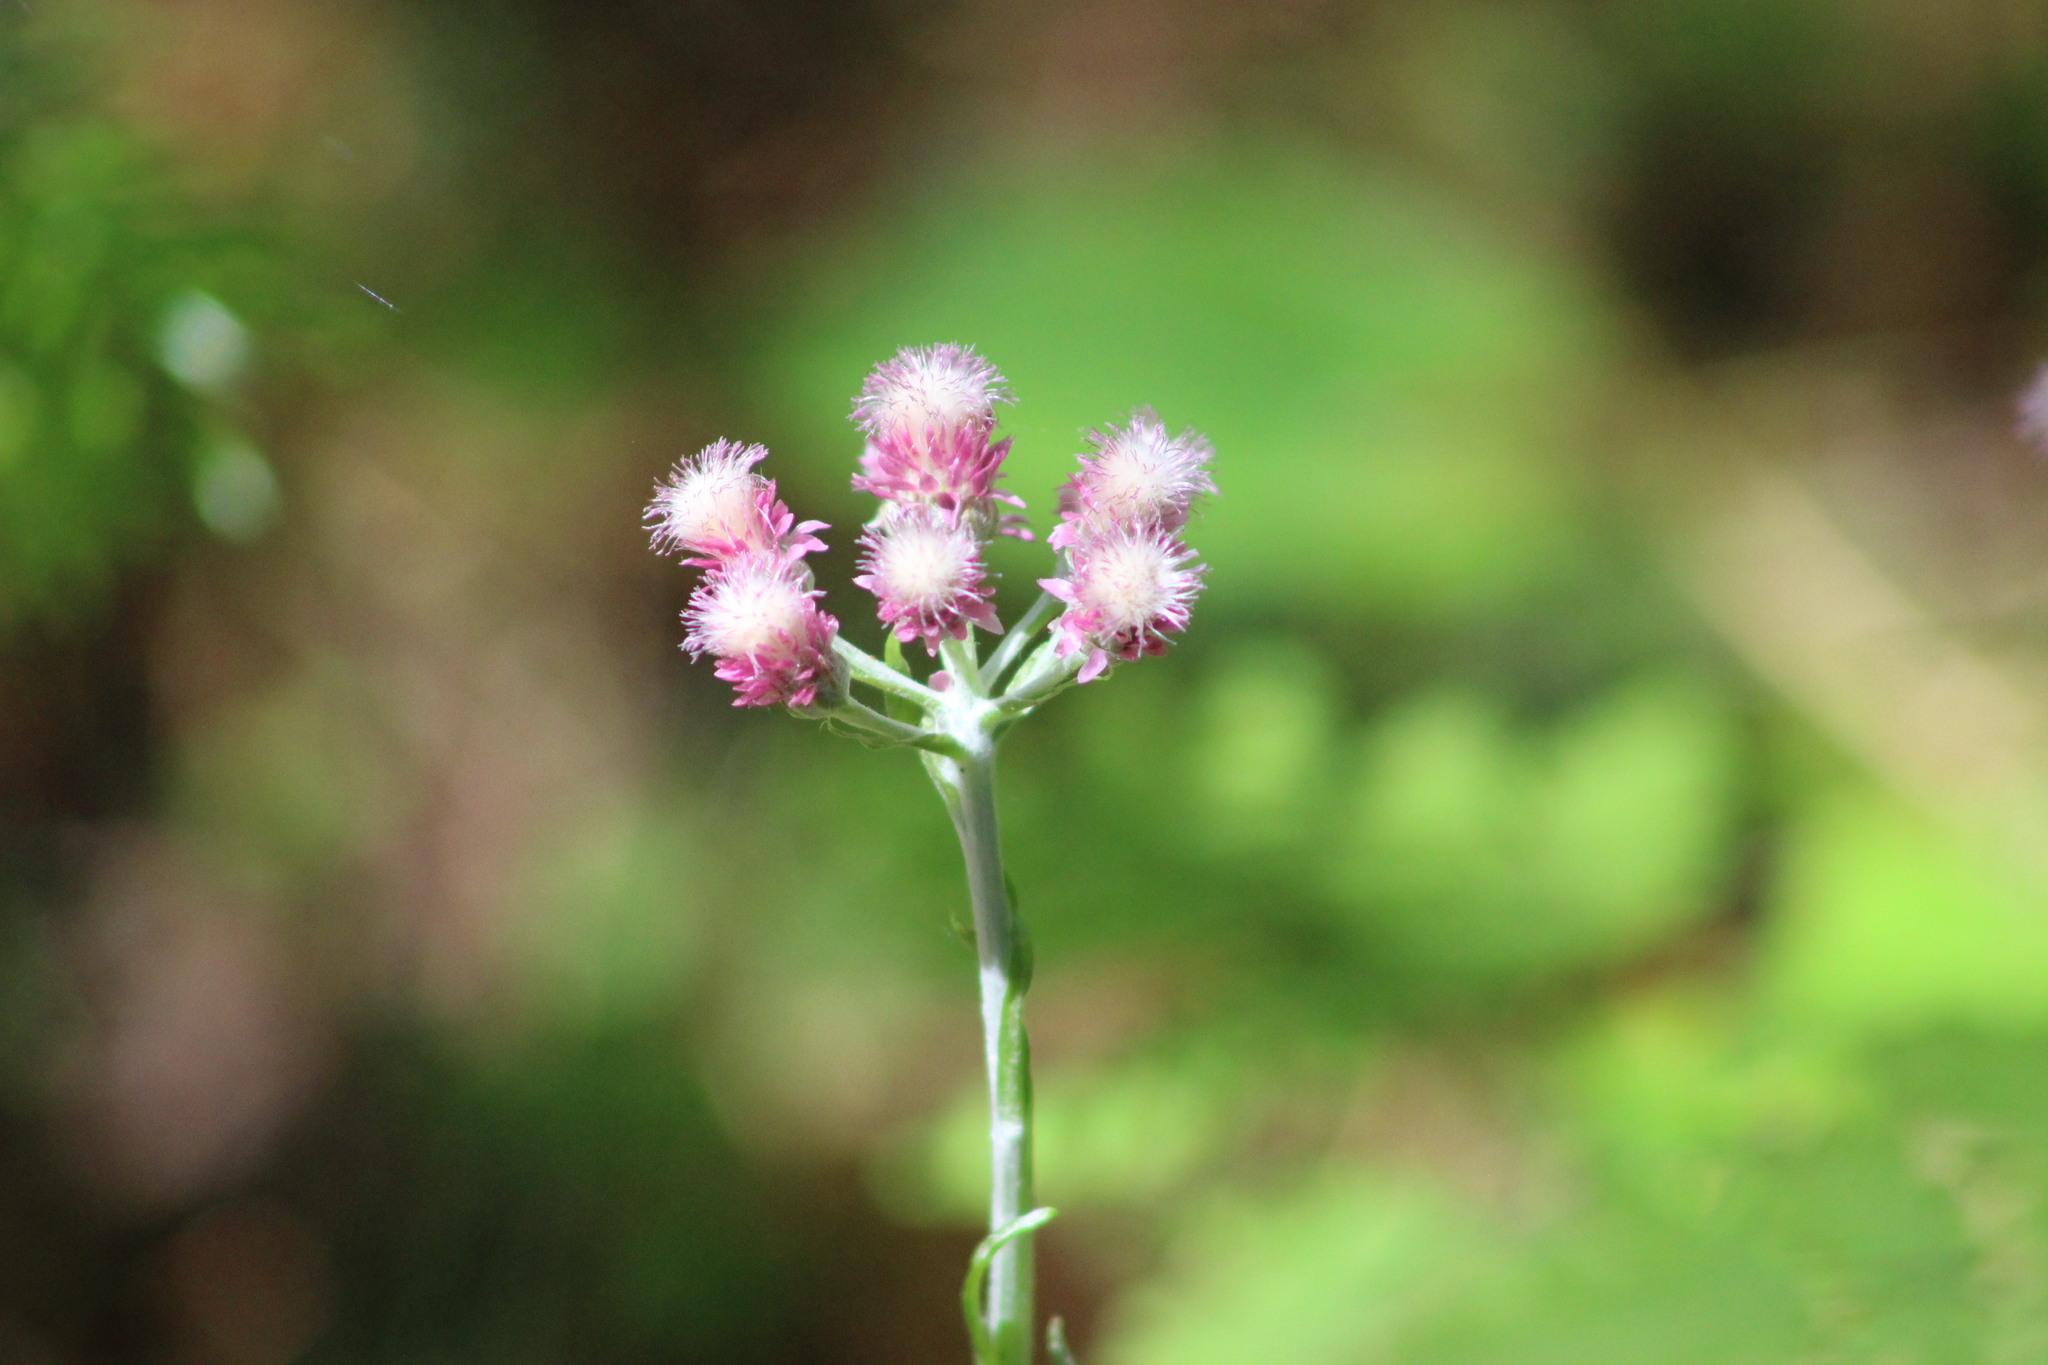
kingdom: Plantae
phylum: Tracheophyta
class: Magnoliopsida
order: Asterales
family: Asteraceae
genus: Antennaria
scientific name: Antennaria dioica
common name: Mountain everlasting
